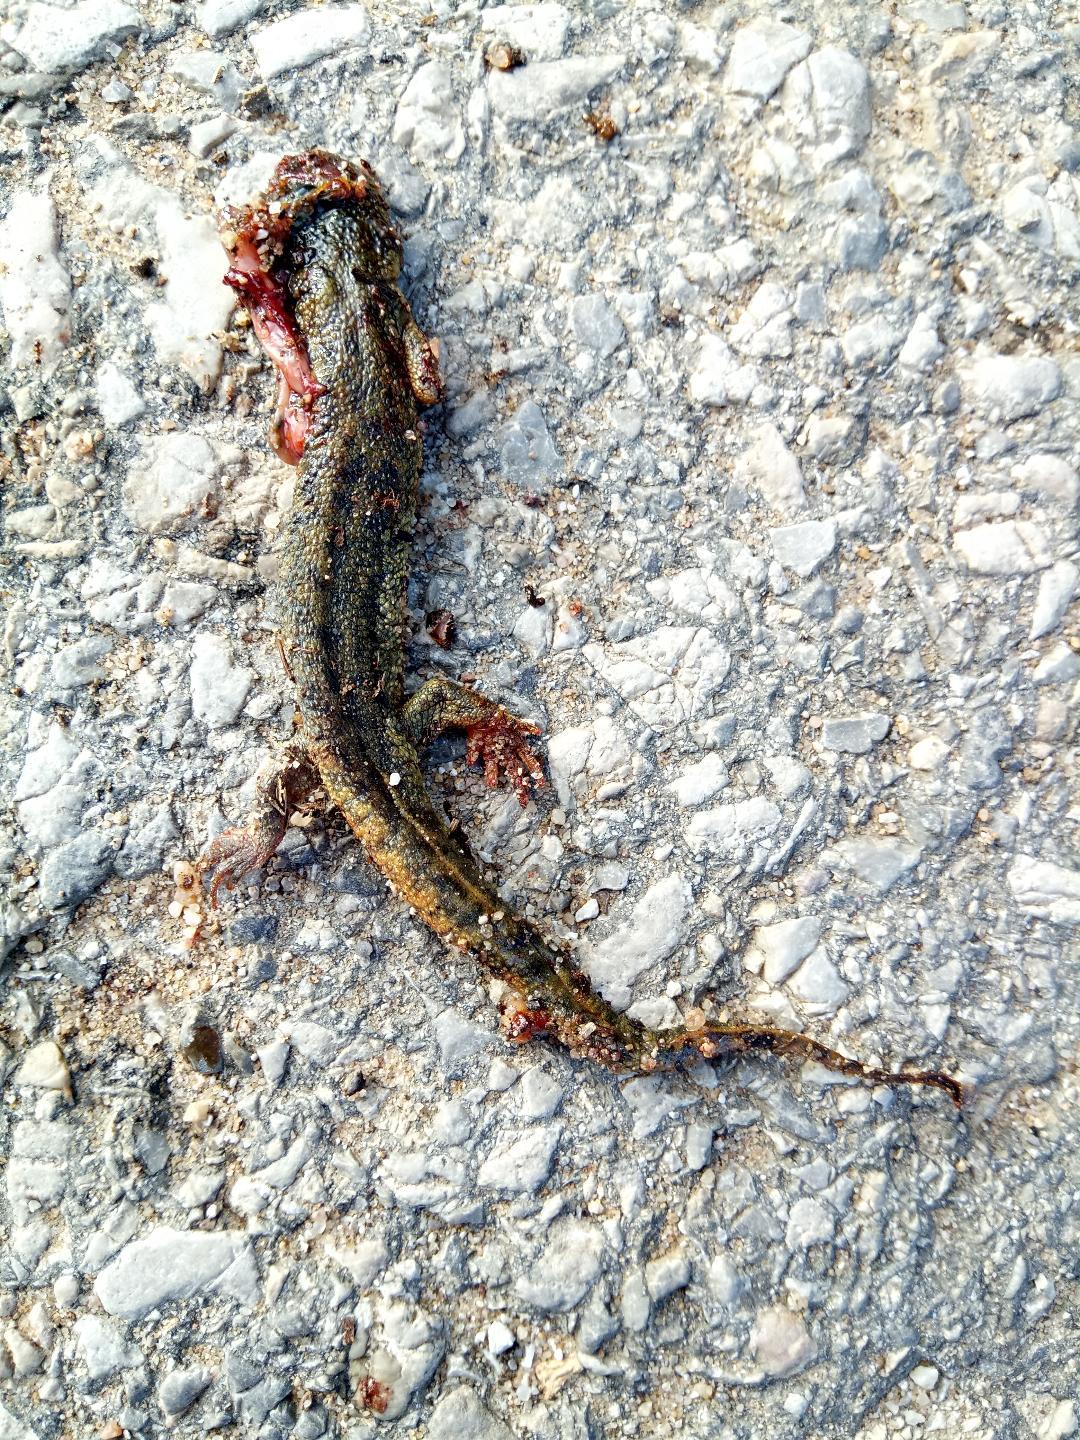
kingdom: Animalia
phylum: Chordata
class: Amphibia
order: Caudata
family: Salamandridae
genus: Pleurodeles
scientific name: Pleurodeles nebulosus
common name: Algerian ribbed newt
